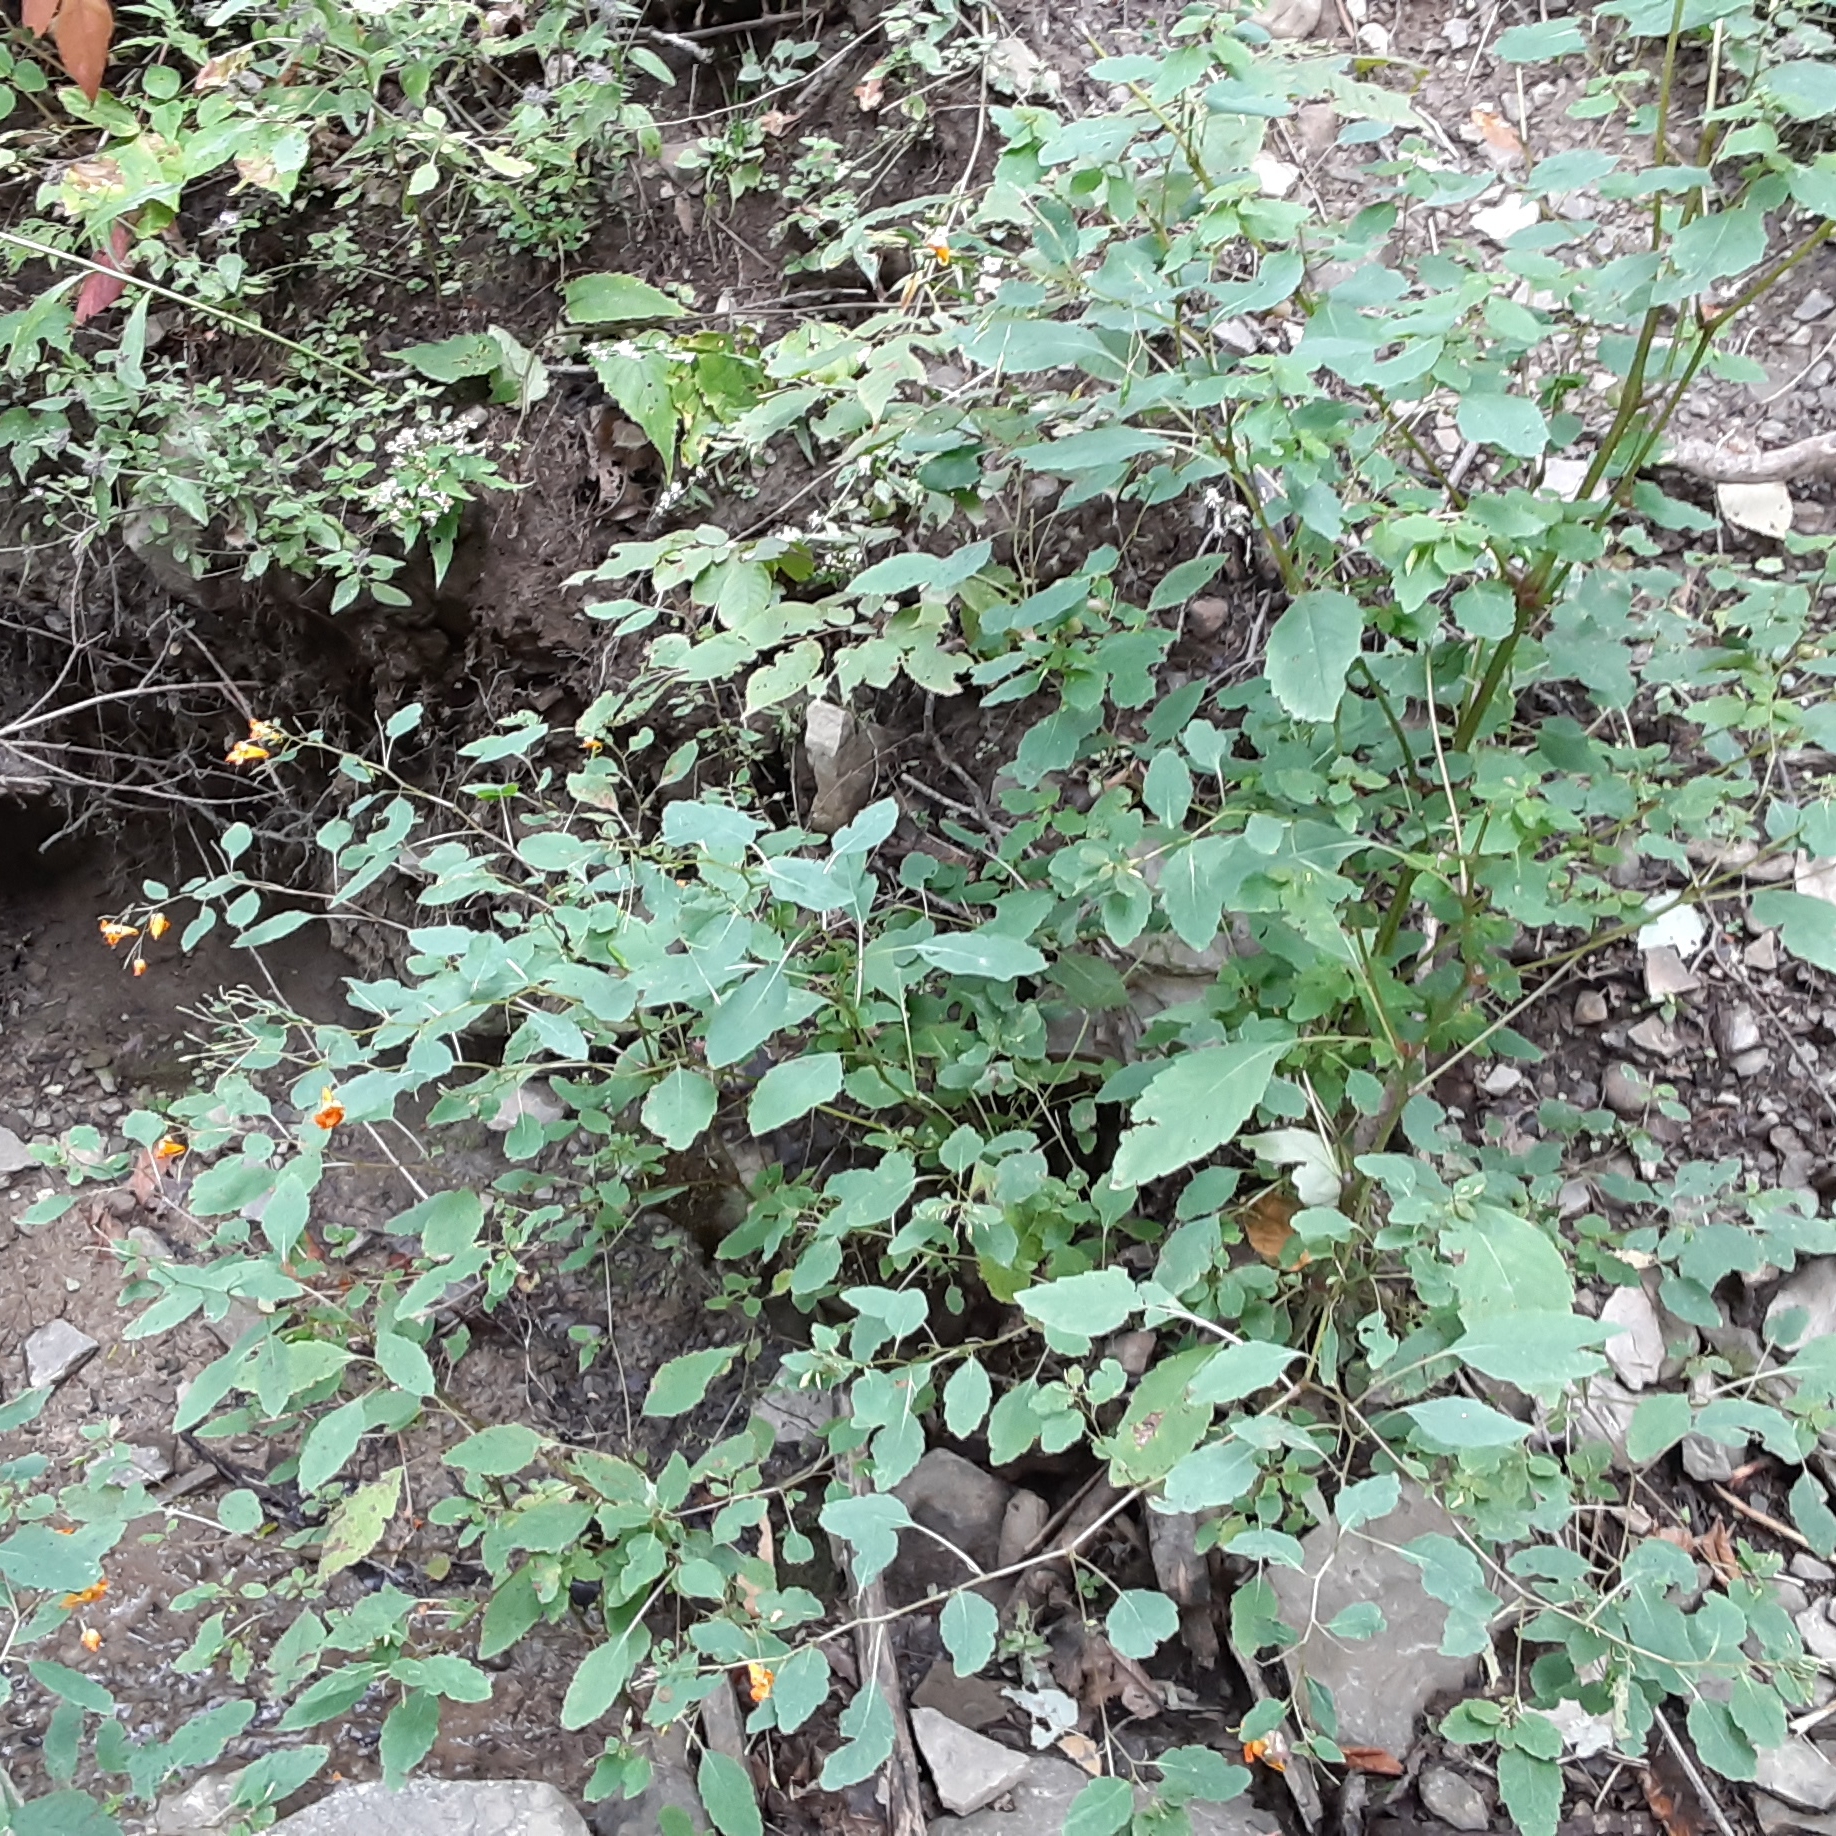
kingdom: Plantae
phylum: Tracheophyta
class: Magnoliopsida
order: Ericales
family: Balsaminaceae
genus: Impatiens
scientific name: Impatiens capensis
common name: Orange balsam
